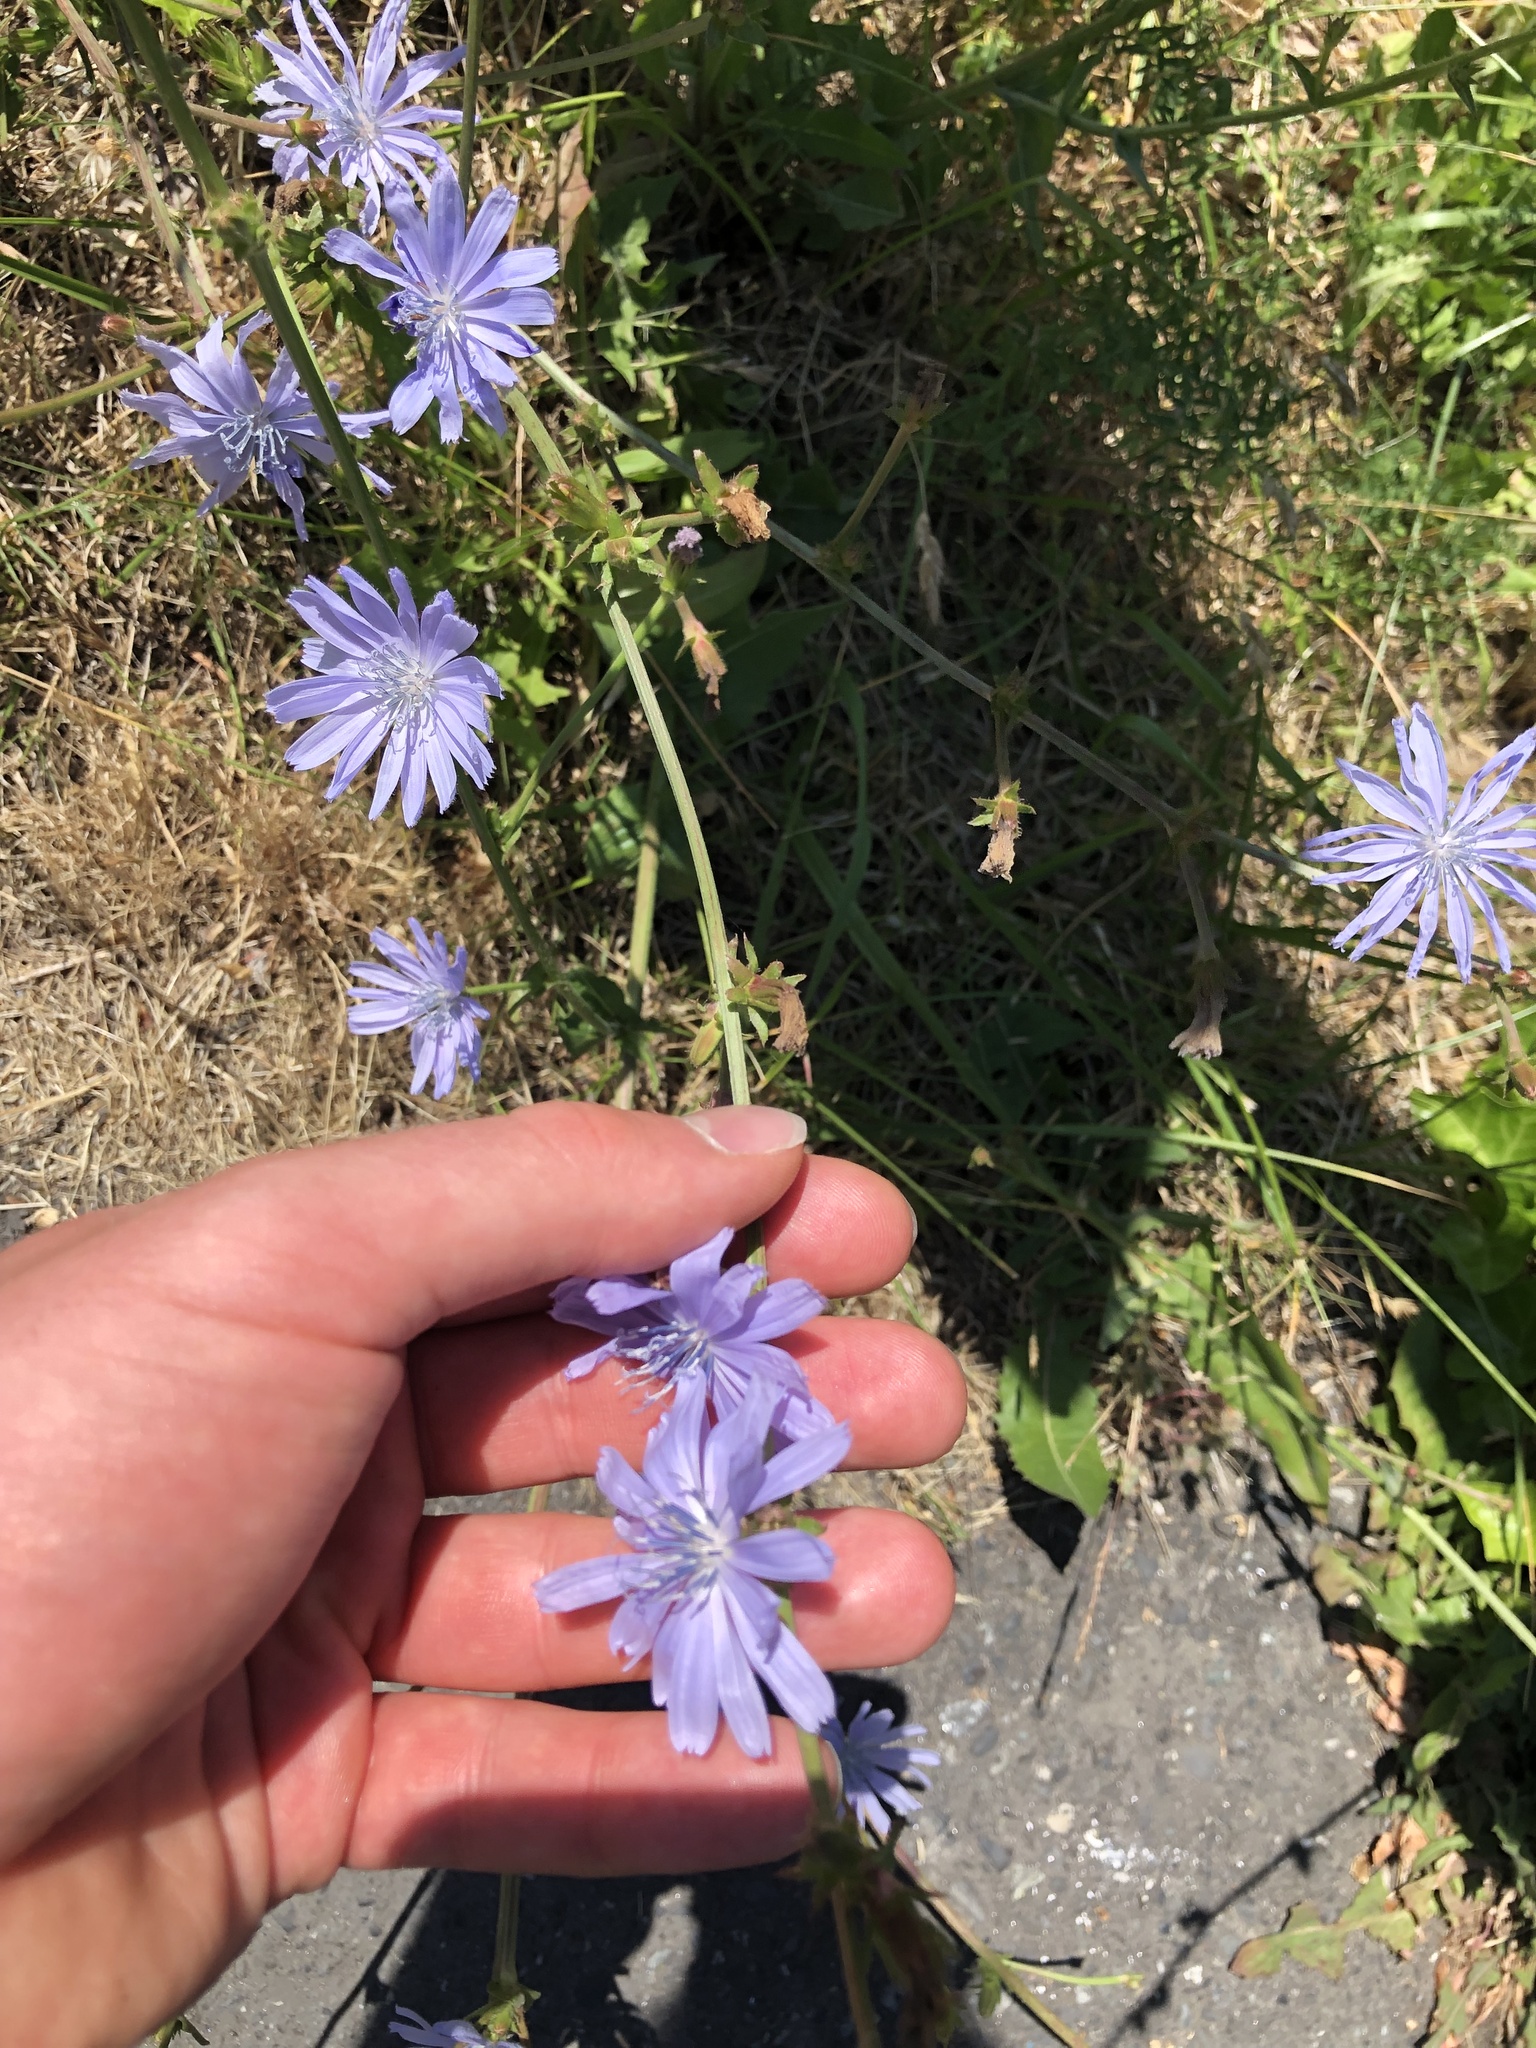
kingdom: Plantae
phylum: Tracheophyta
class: Magnoliopsida
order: Asterales
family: Asteraceae
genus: Cichorium
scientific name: Cichorium intybus
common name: Chicory
